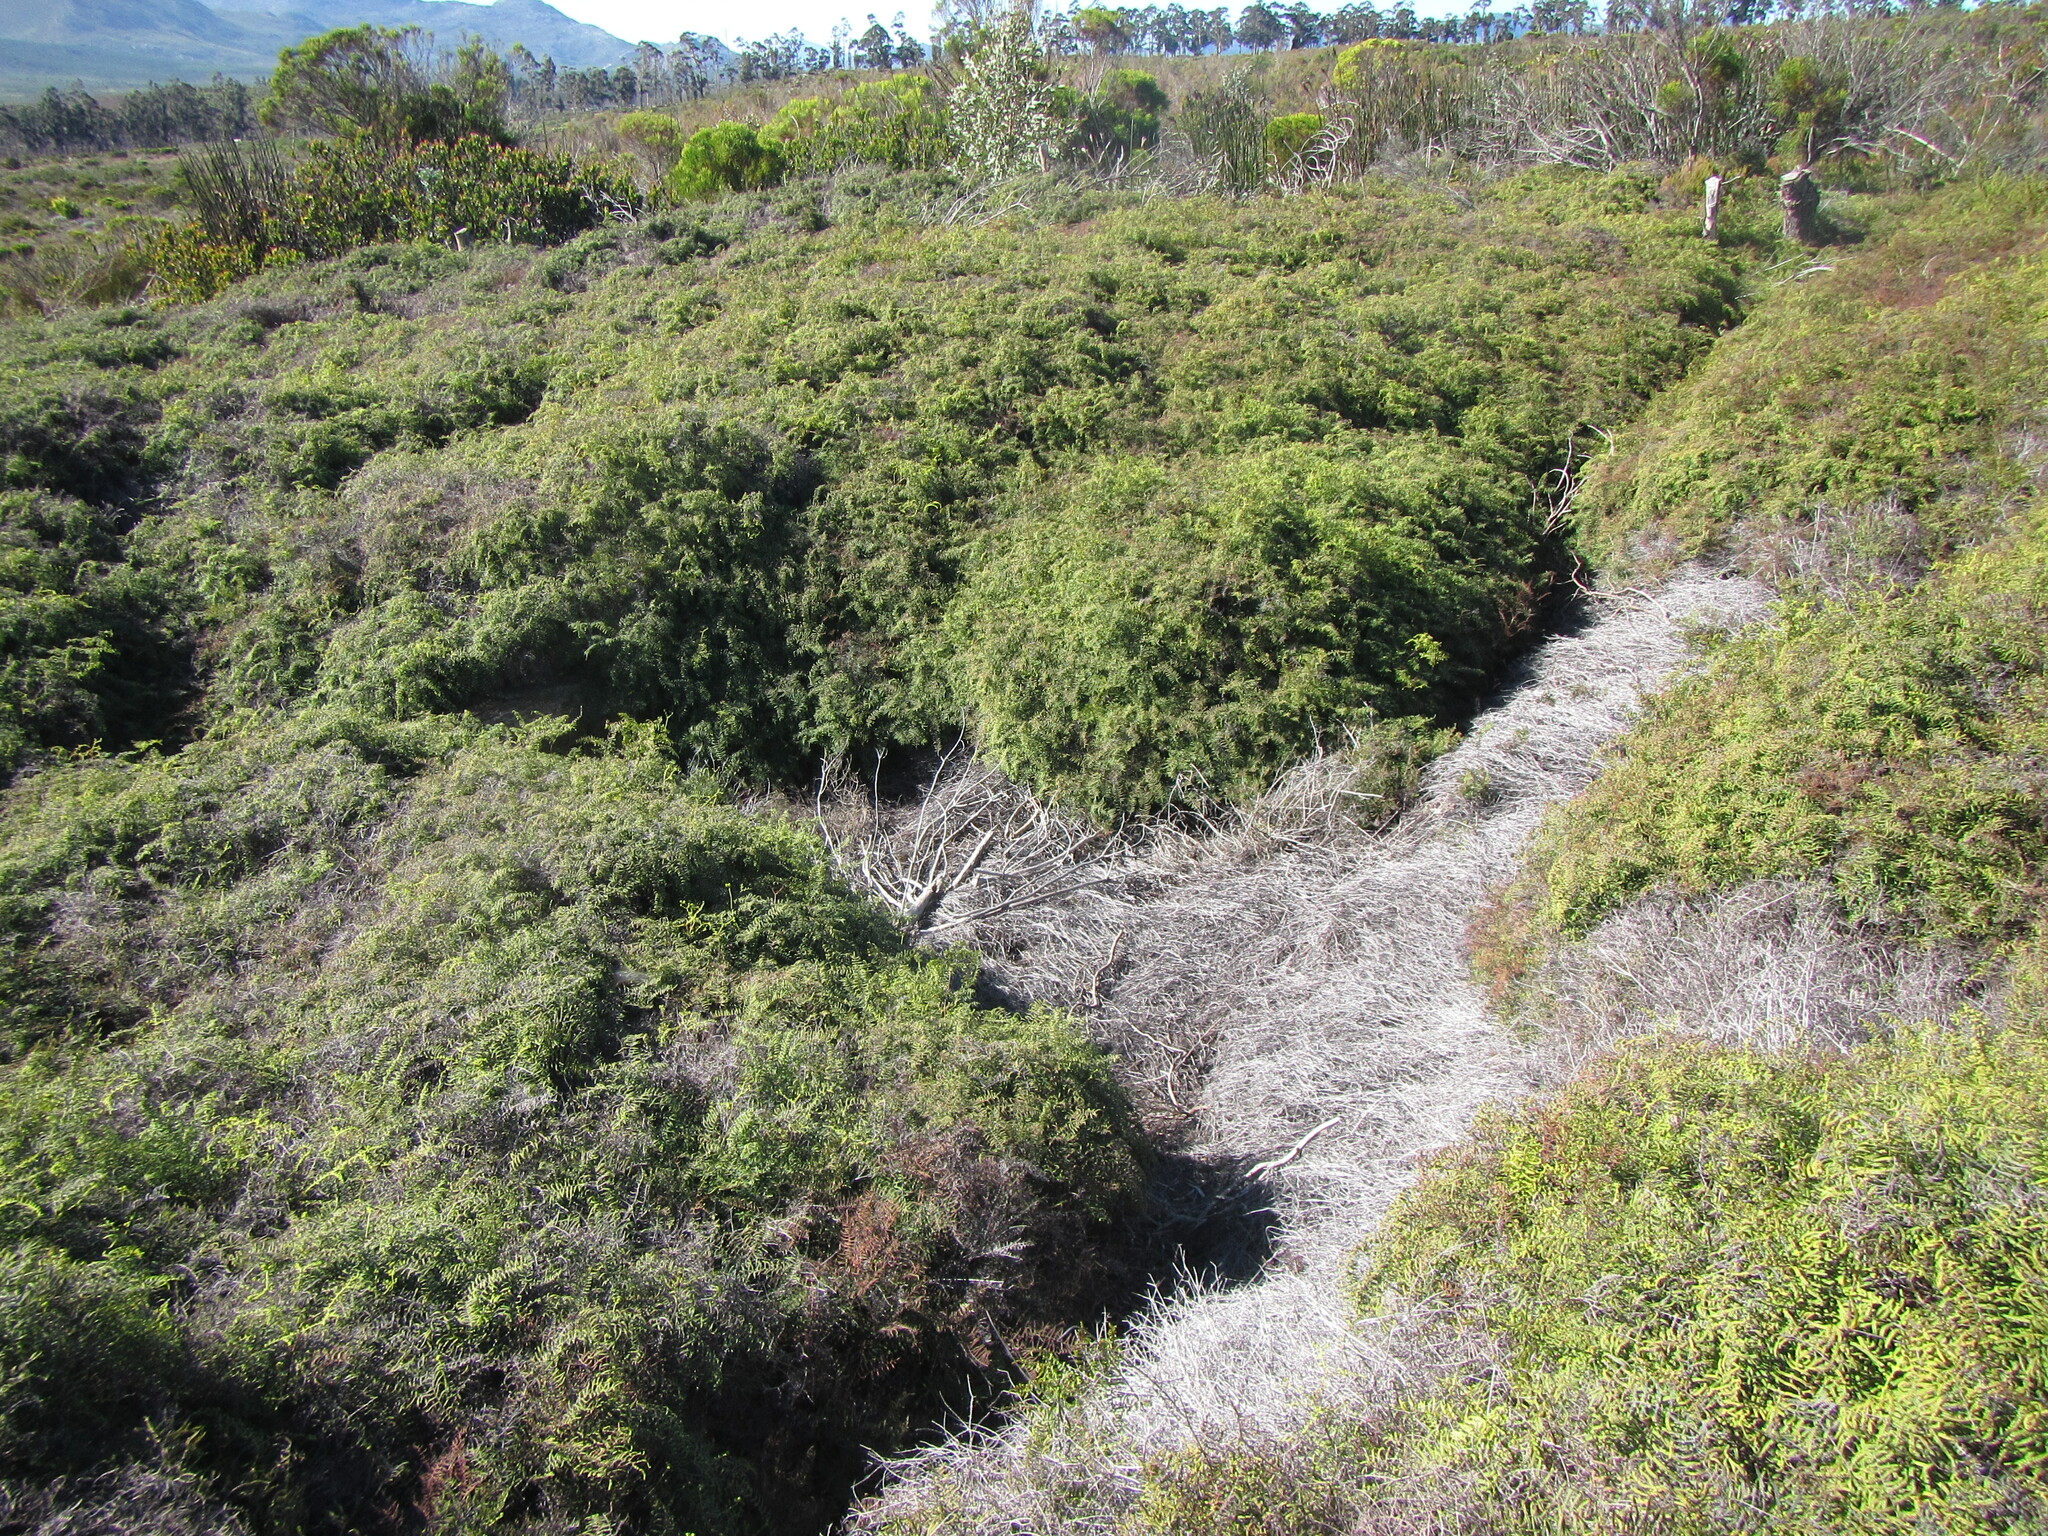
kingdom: Plantae
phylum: Tracheophyta
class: Polypodiopsida
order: Gleicheniales
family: Gleicheniaceae
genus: Gleichenia
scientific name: Gleichenia polypodioides
